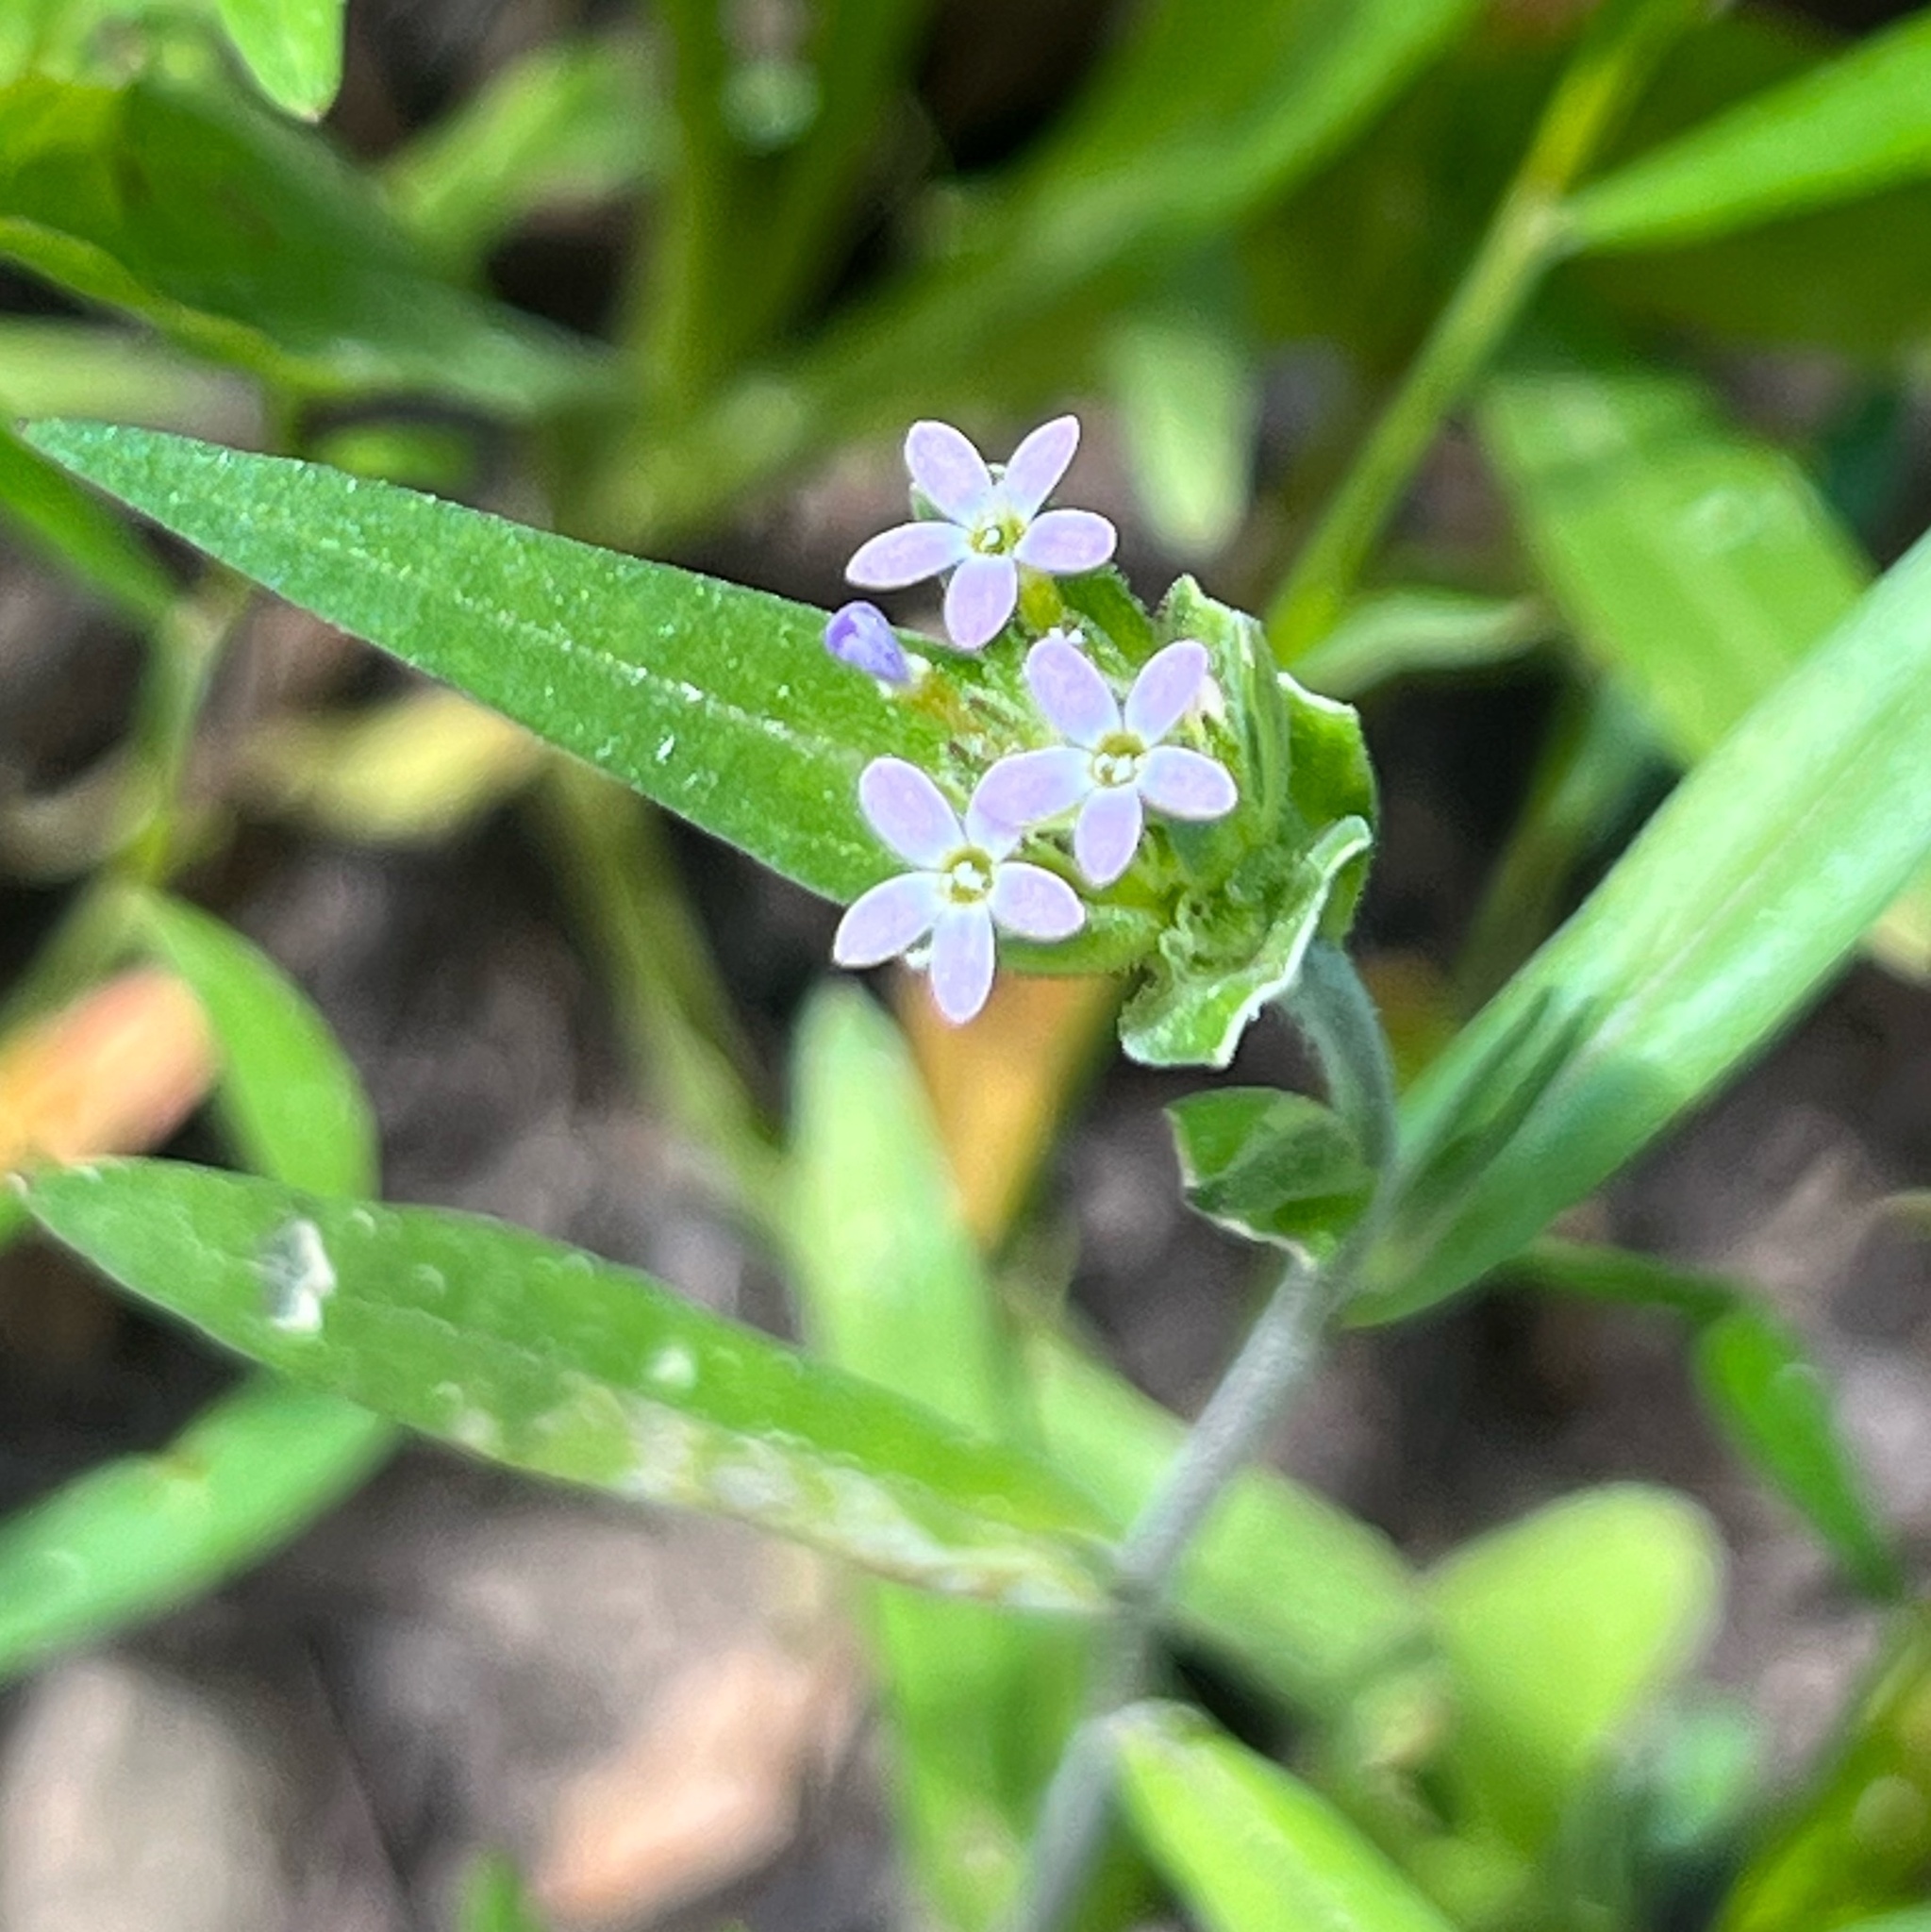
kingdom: Plantae
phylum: Tracheophyta
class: Magnoliopsida
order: Ericales
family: Polemoniaceae
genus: Collomia
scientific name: Collomia linearis
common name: Tiny trumpet
